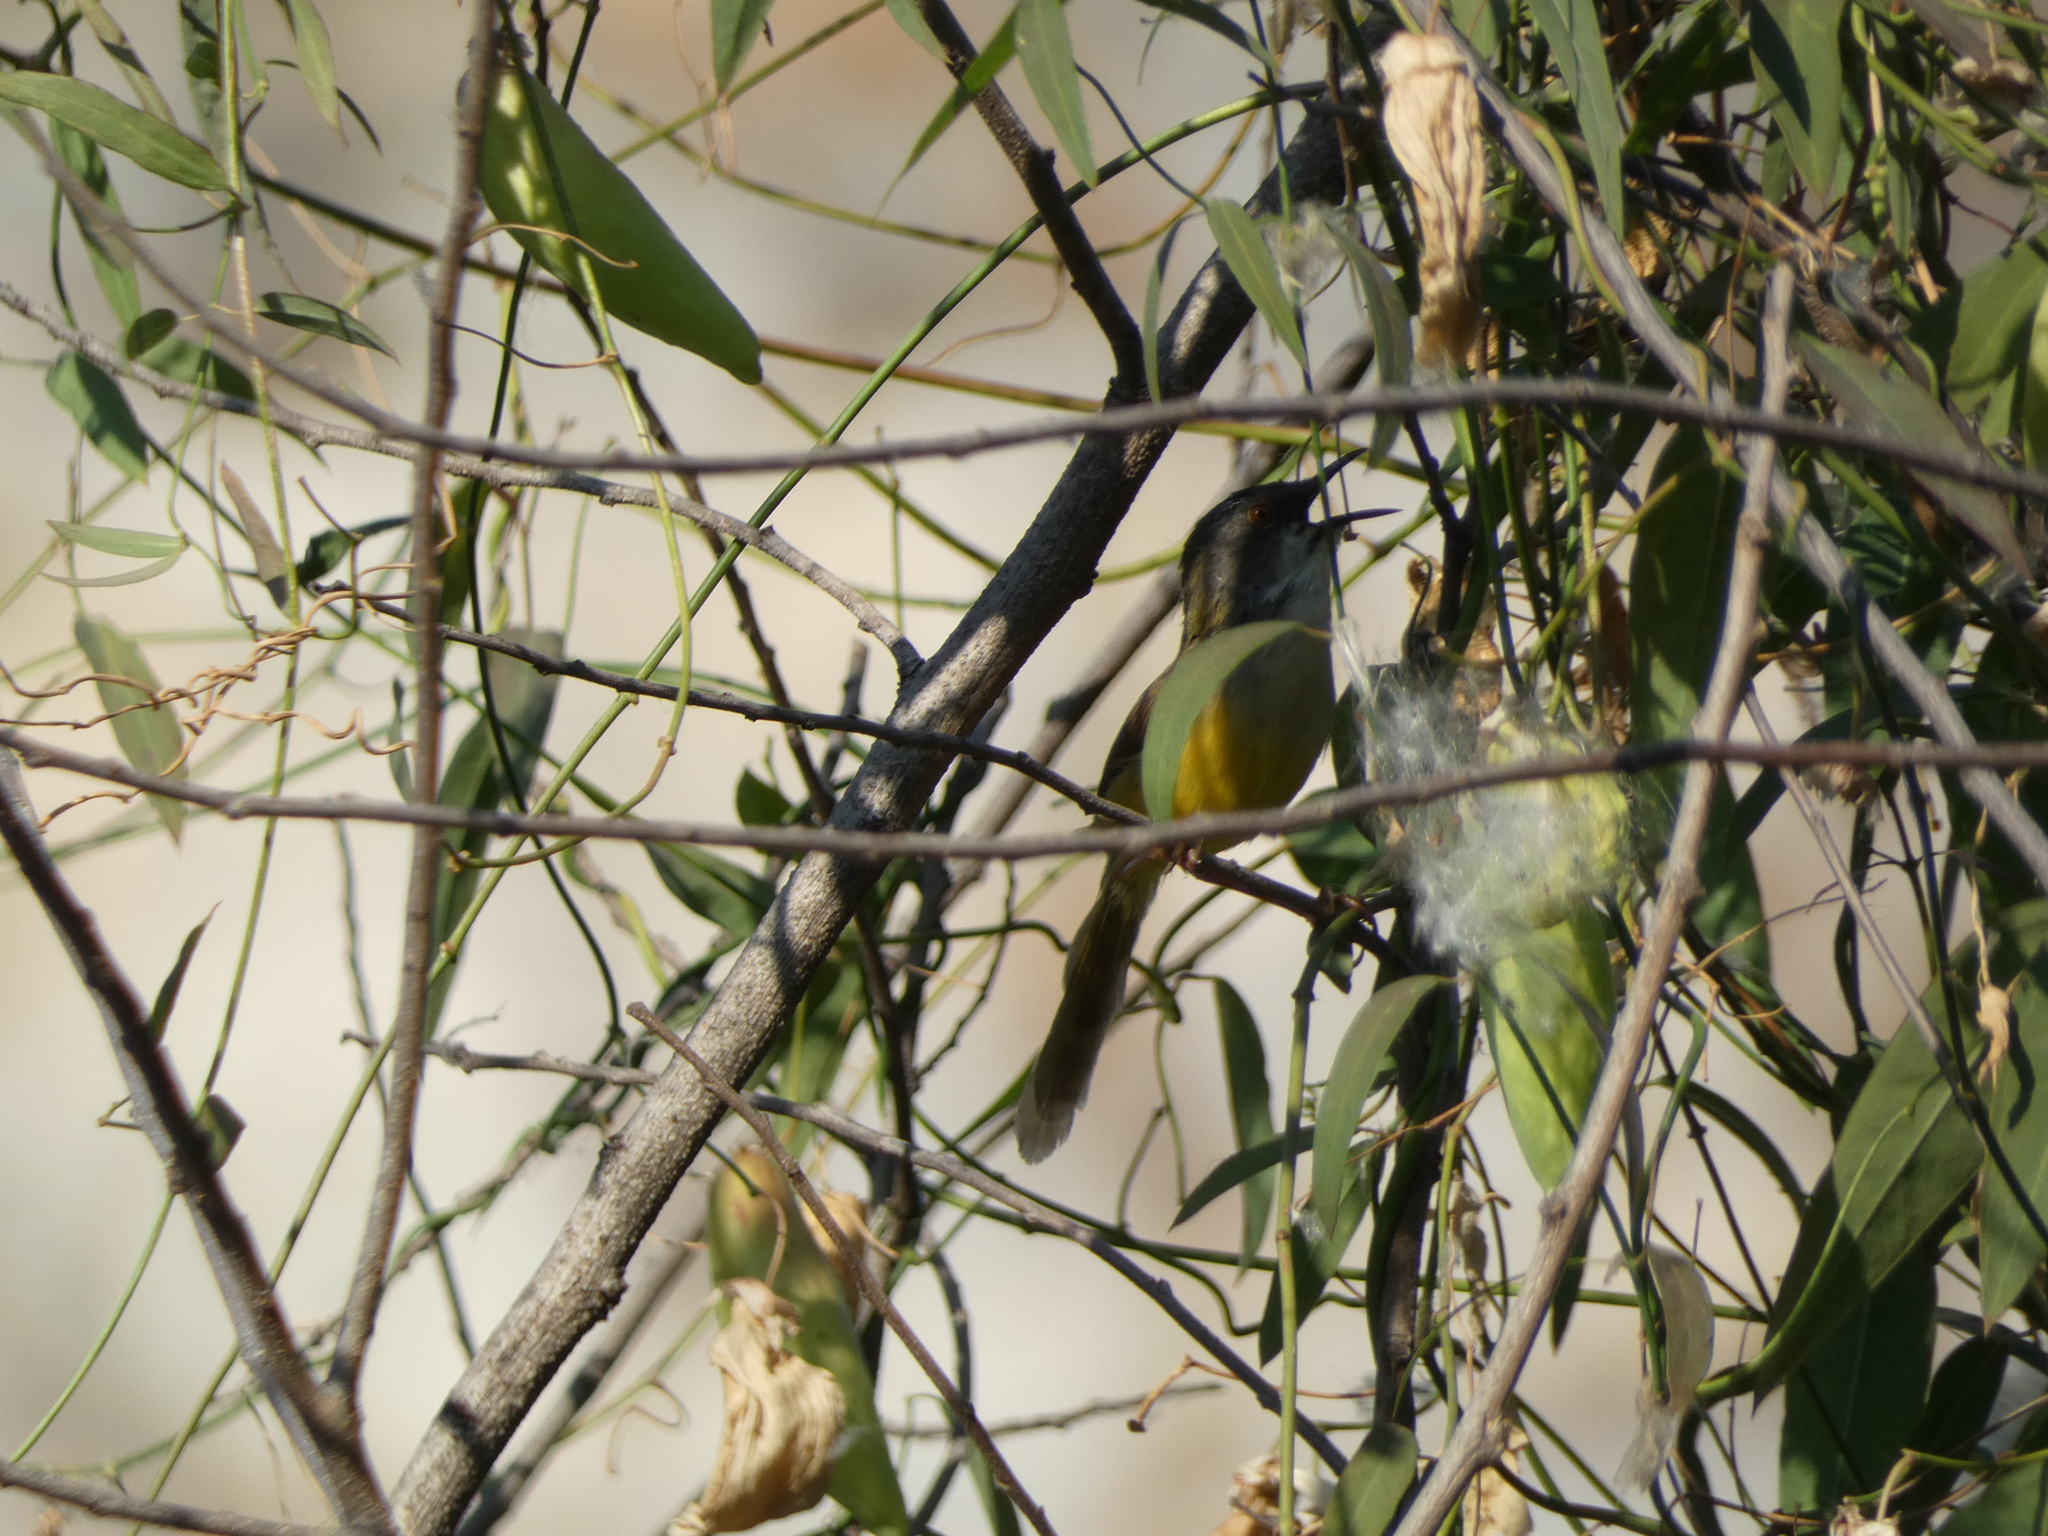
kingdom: Animalia
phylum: Chordata
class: Aves
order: Passeriformes
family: Cisticolidae
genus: Prinia
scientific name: Prinia flaviventris
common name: Yellow-bellied prinia
